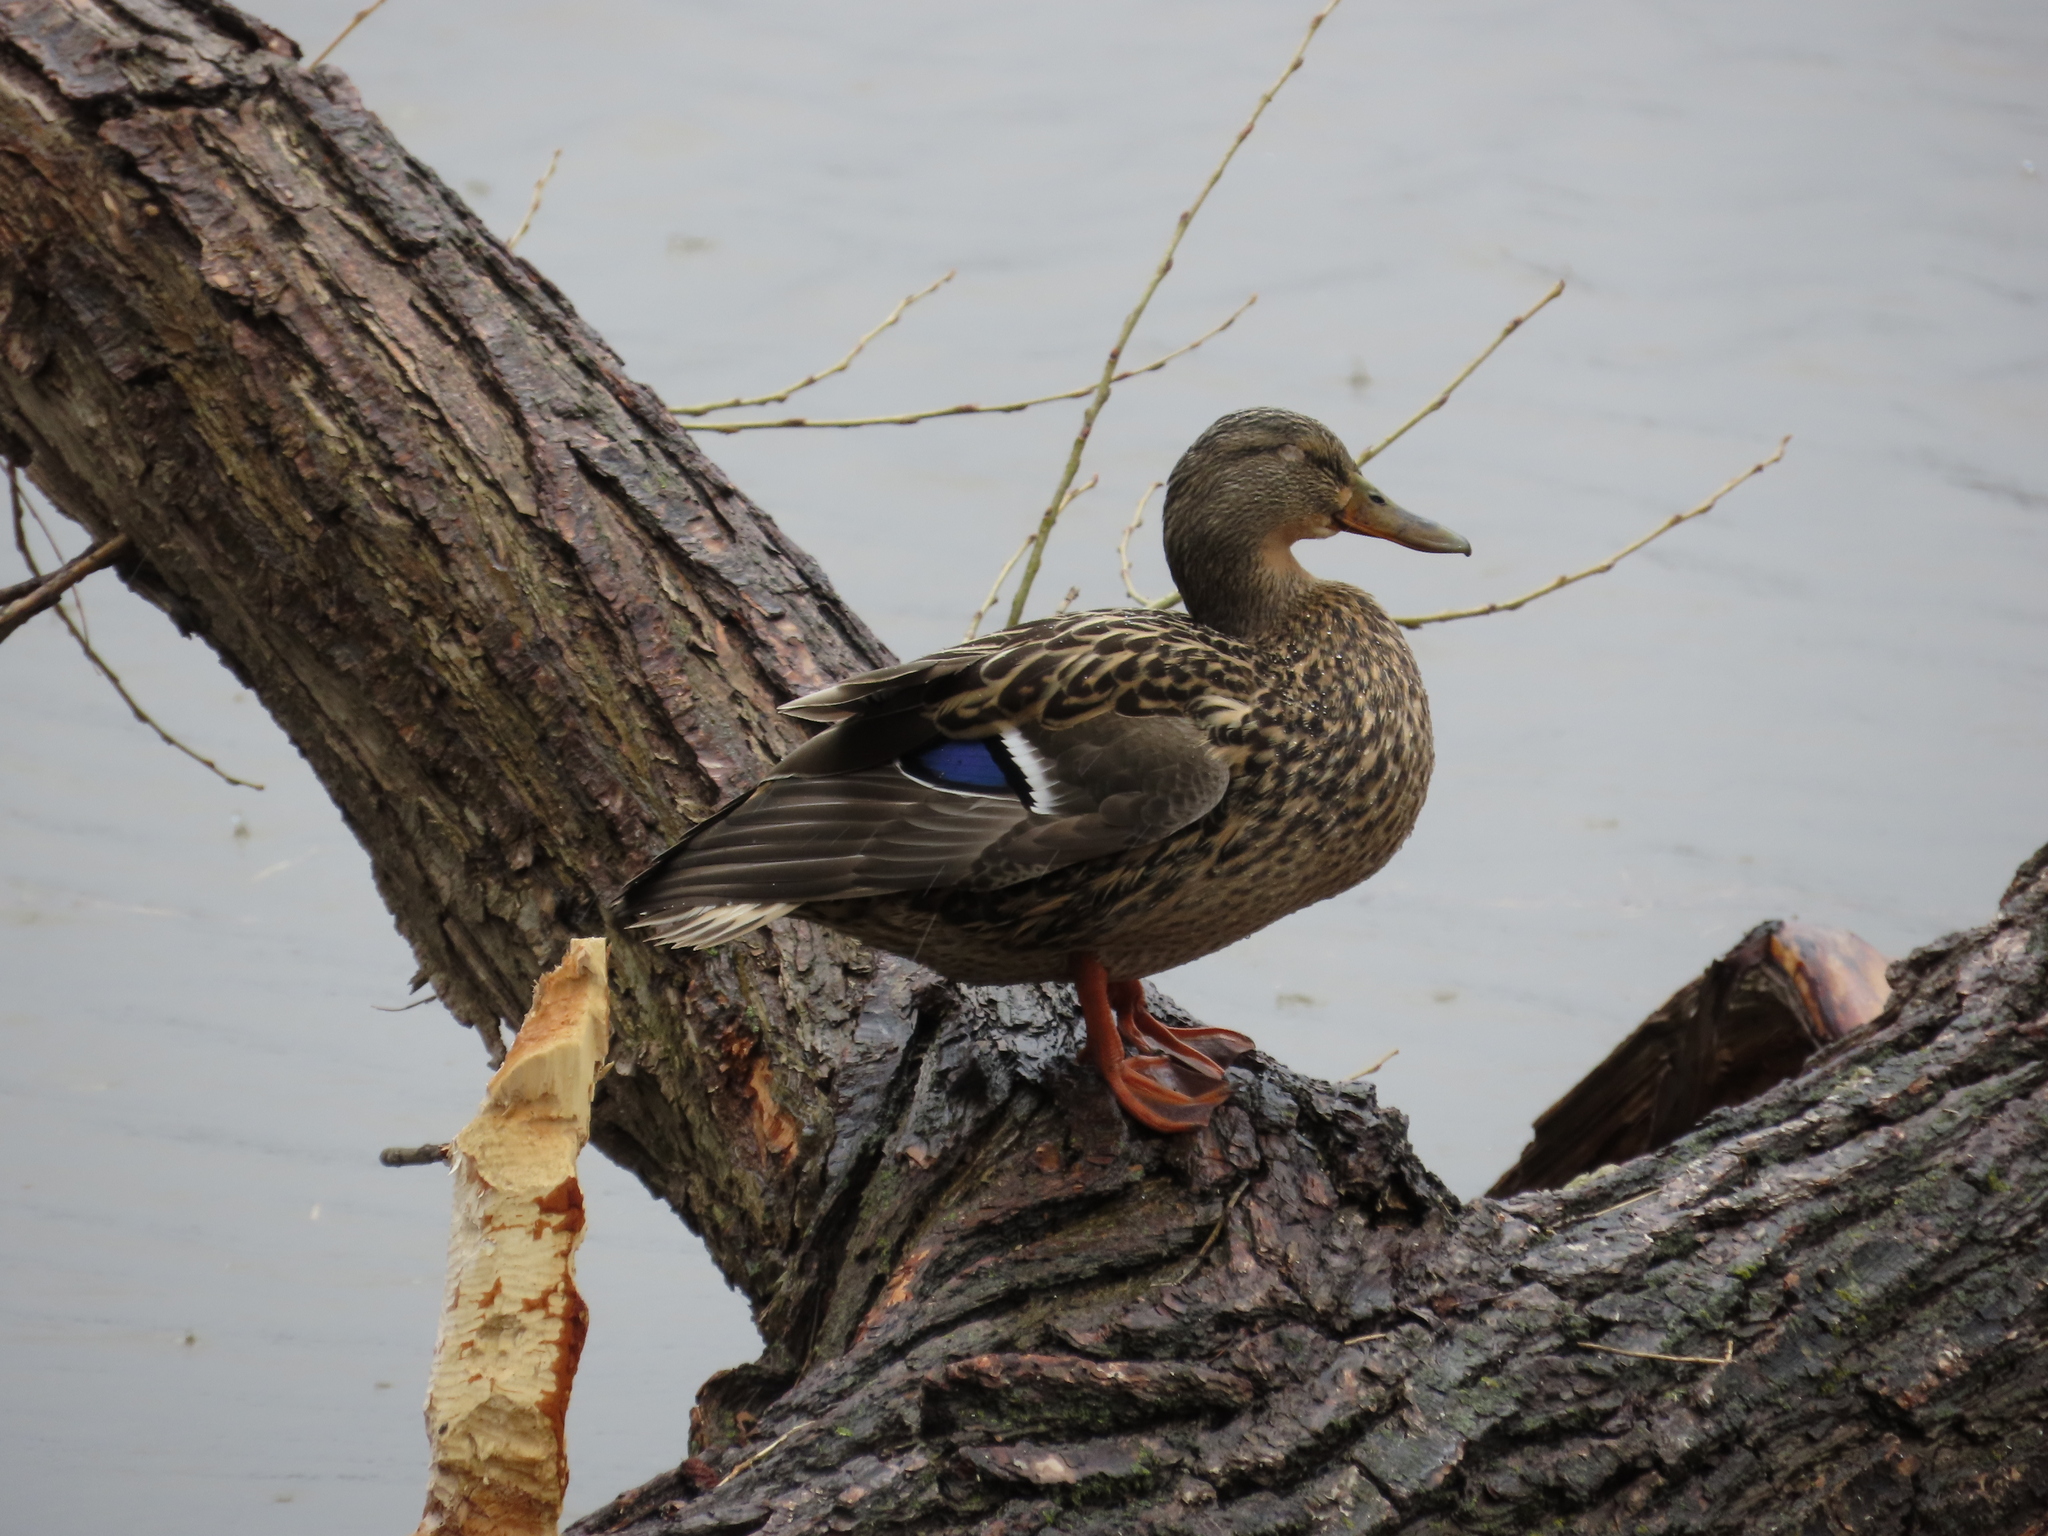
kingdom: Animalia
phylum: Chordata
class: Aves
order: Anseriformes
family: Anatidae
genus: Anas
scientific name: Anas platyrhynchos
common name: Mallard
